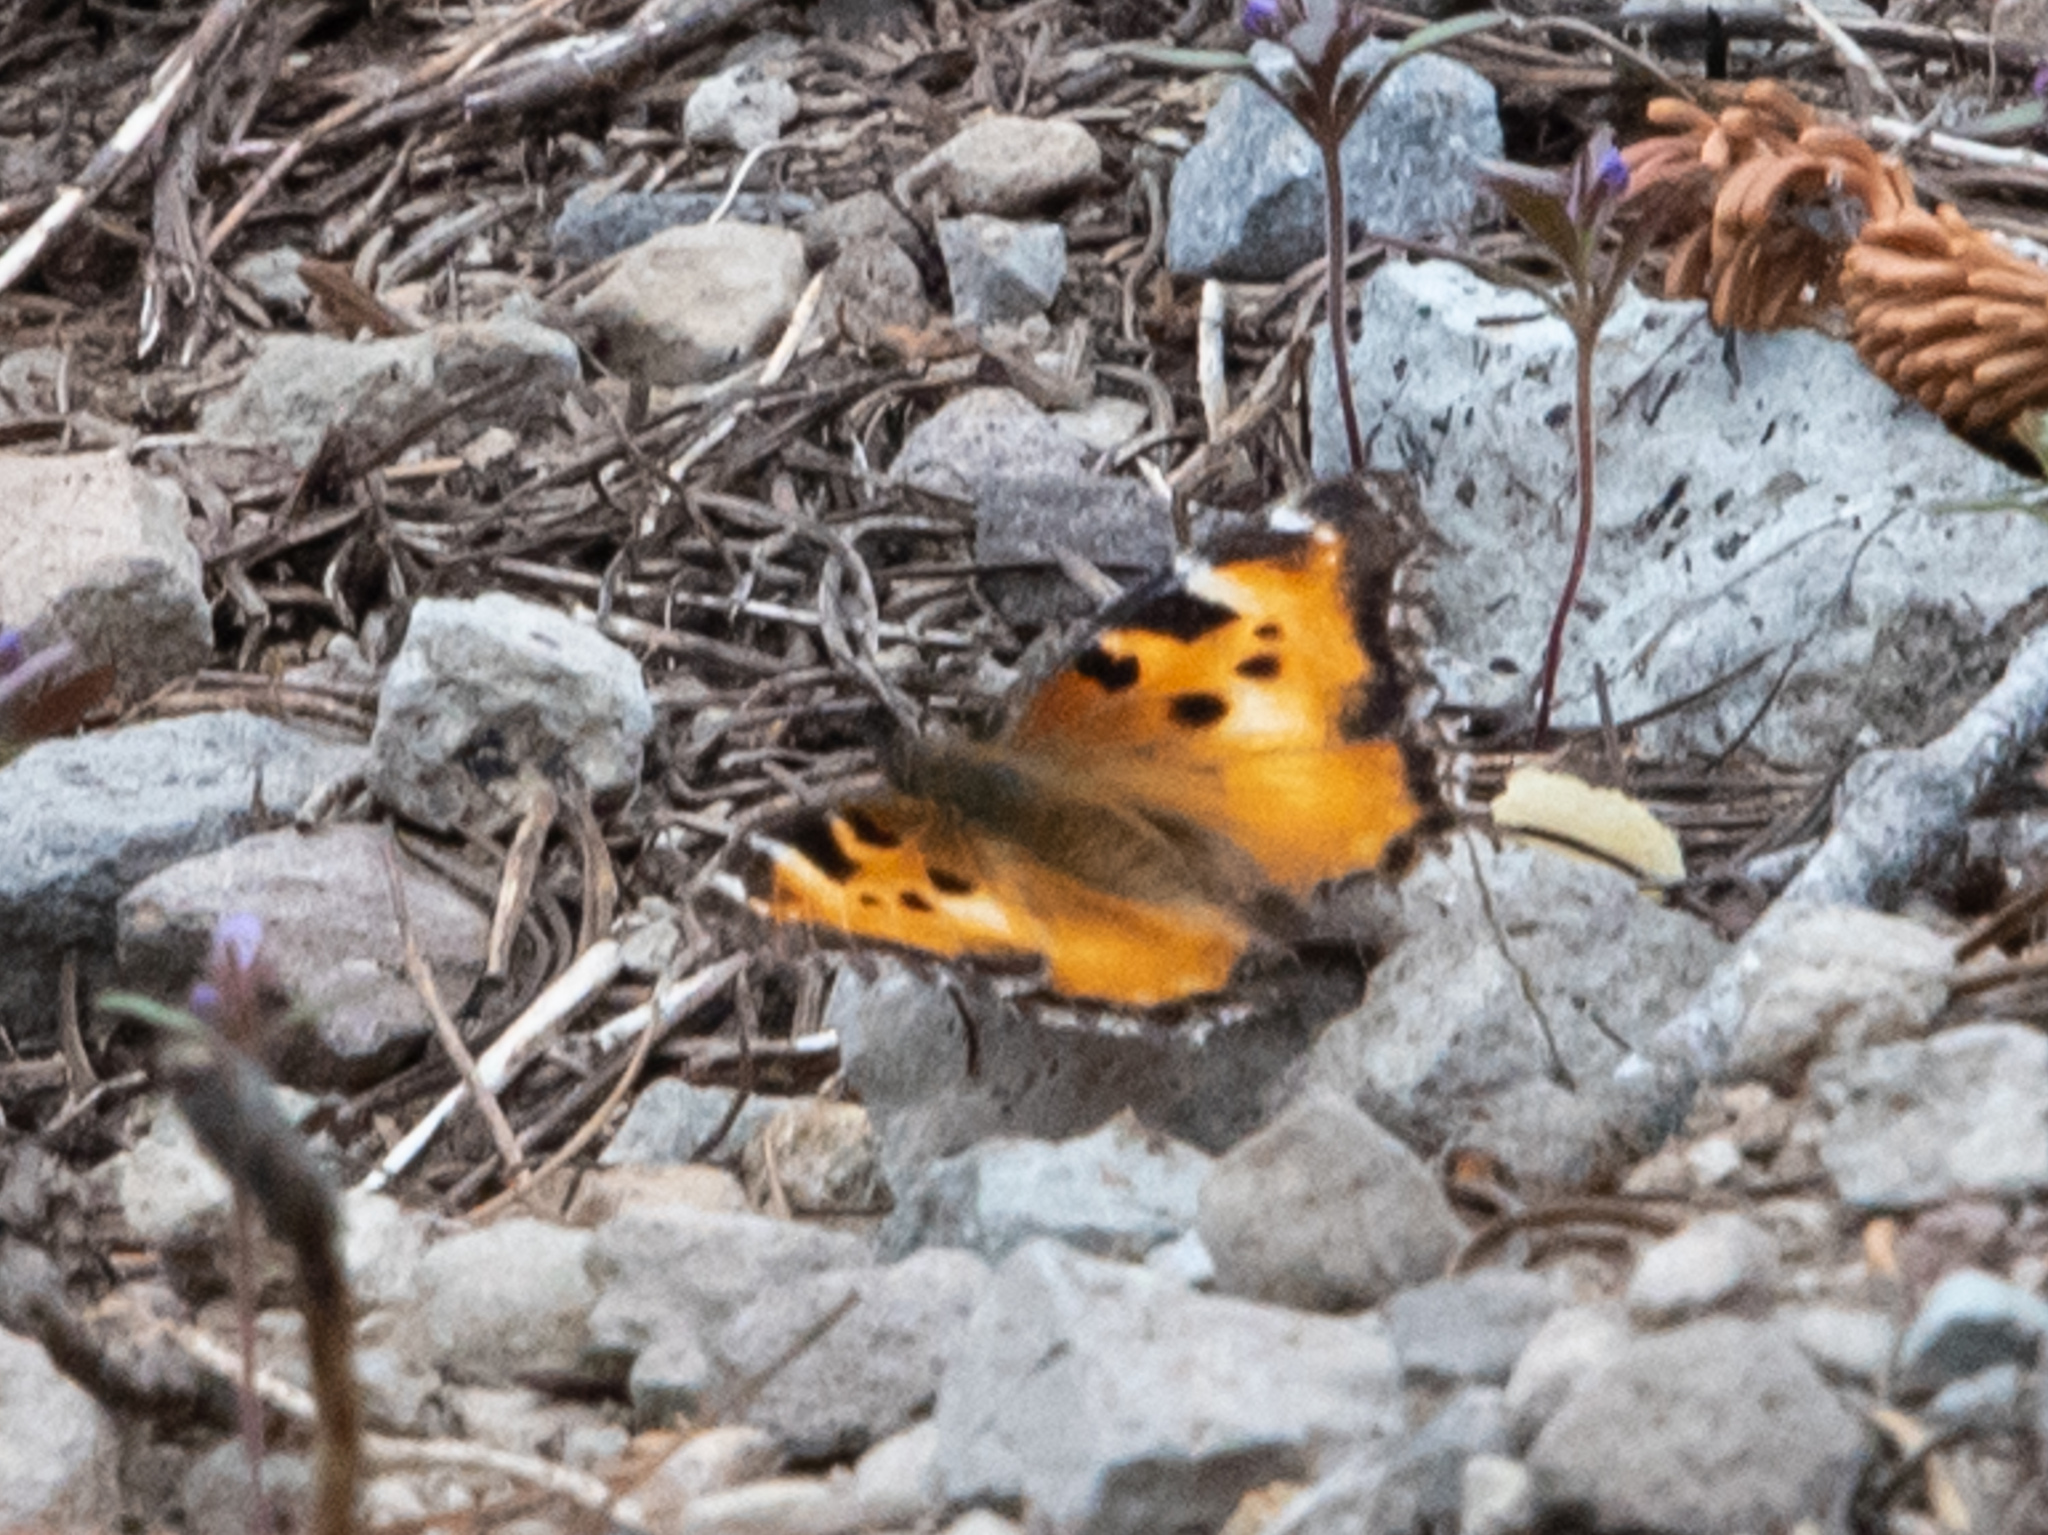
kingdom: Animalia
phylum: Arthropoda
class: Insecta
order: Lepidoptera
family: Nymphalidae
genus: Nymphalis
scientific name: Nymphalis californica
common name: California tortoiseshell
